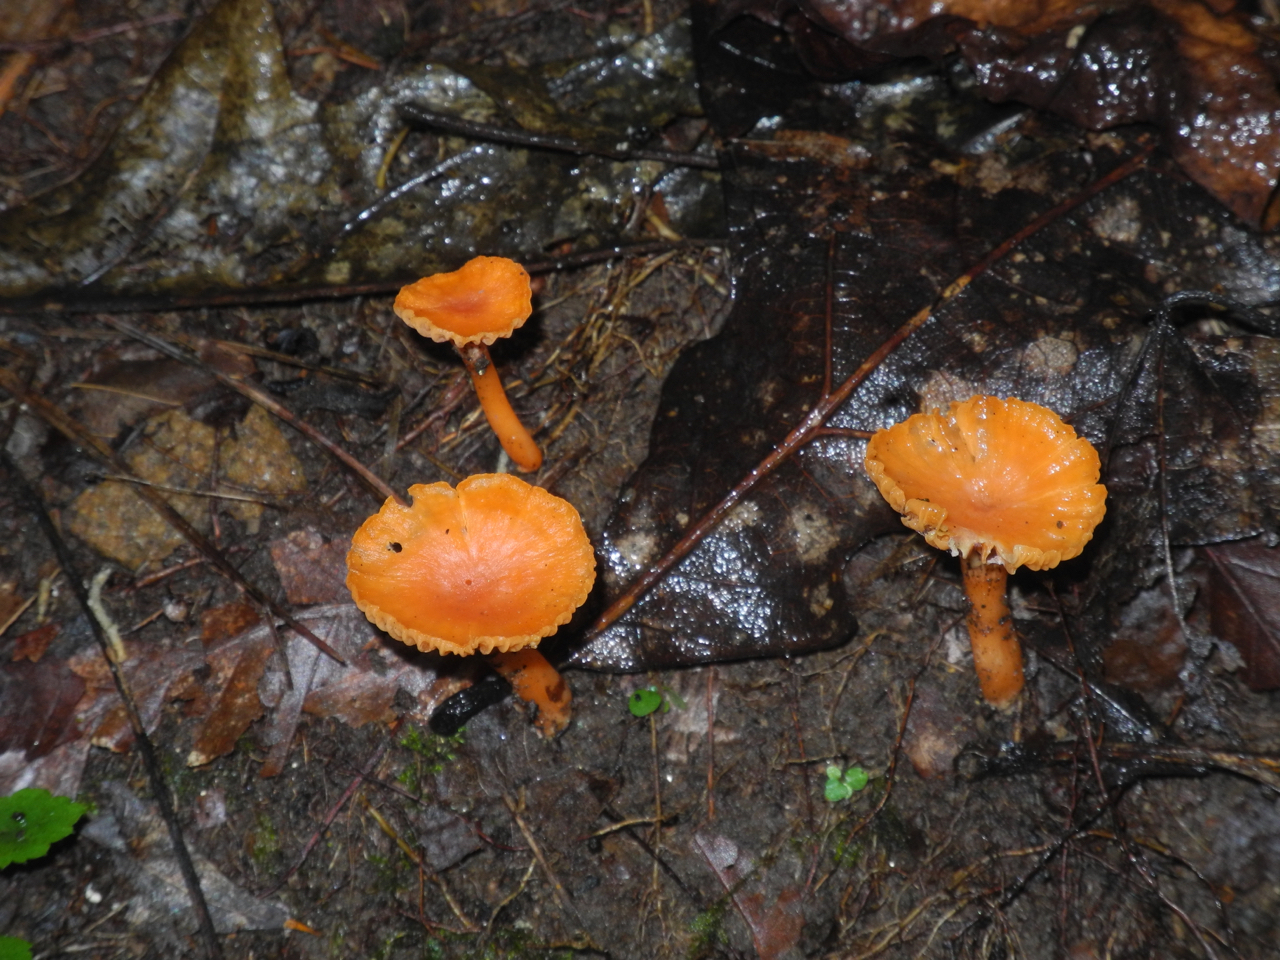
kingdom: Fungi
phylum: Basidiomycota
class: Agaricomycetes
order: Cantharellales
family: Hydnaceae
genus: Cantharellus
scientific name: Cantharellus cinnabarinus
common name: Cinnabar chanterelle
